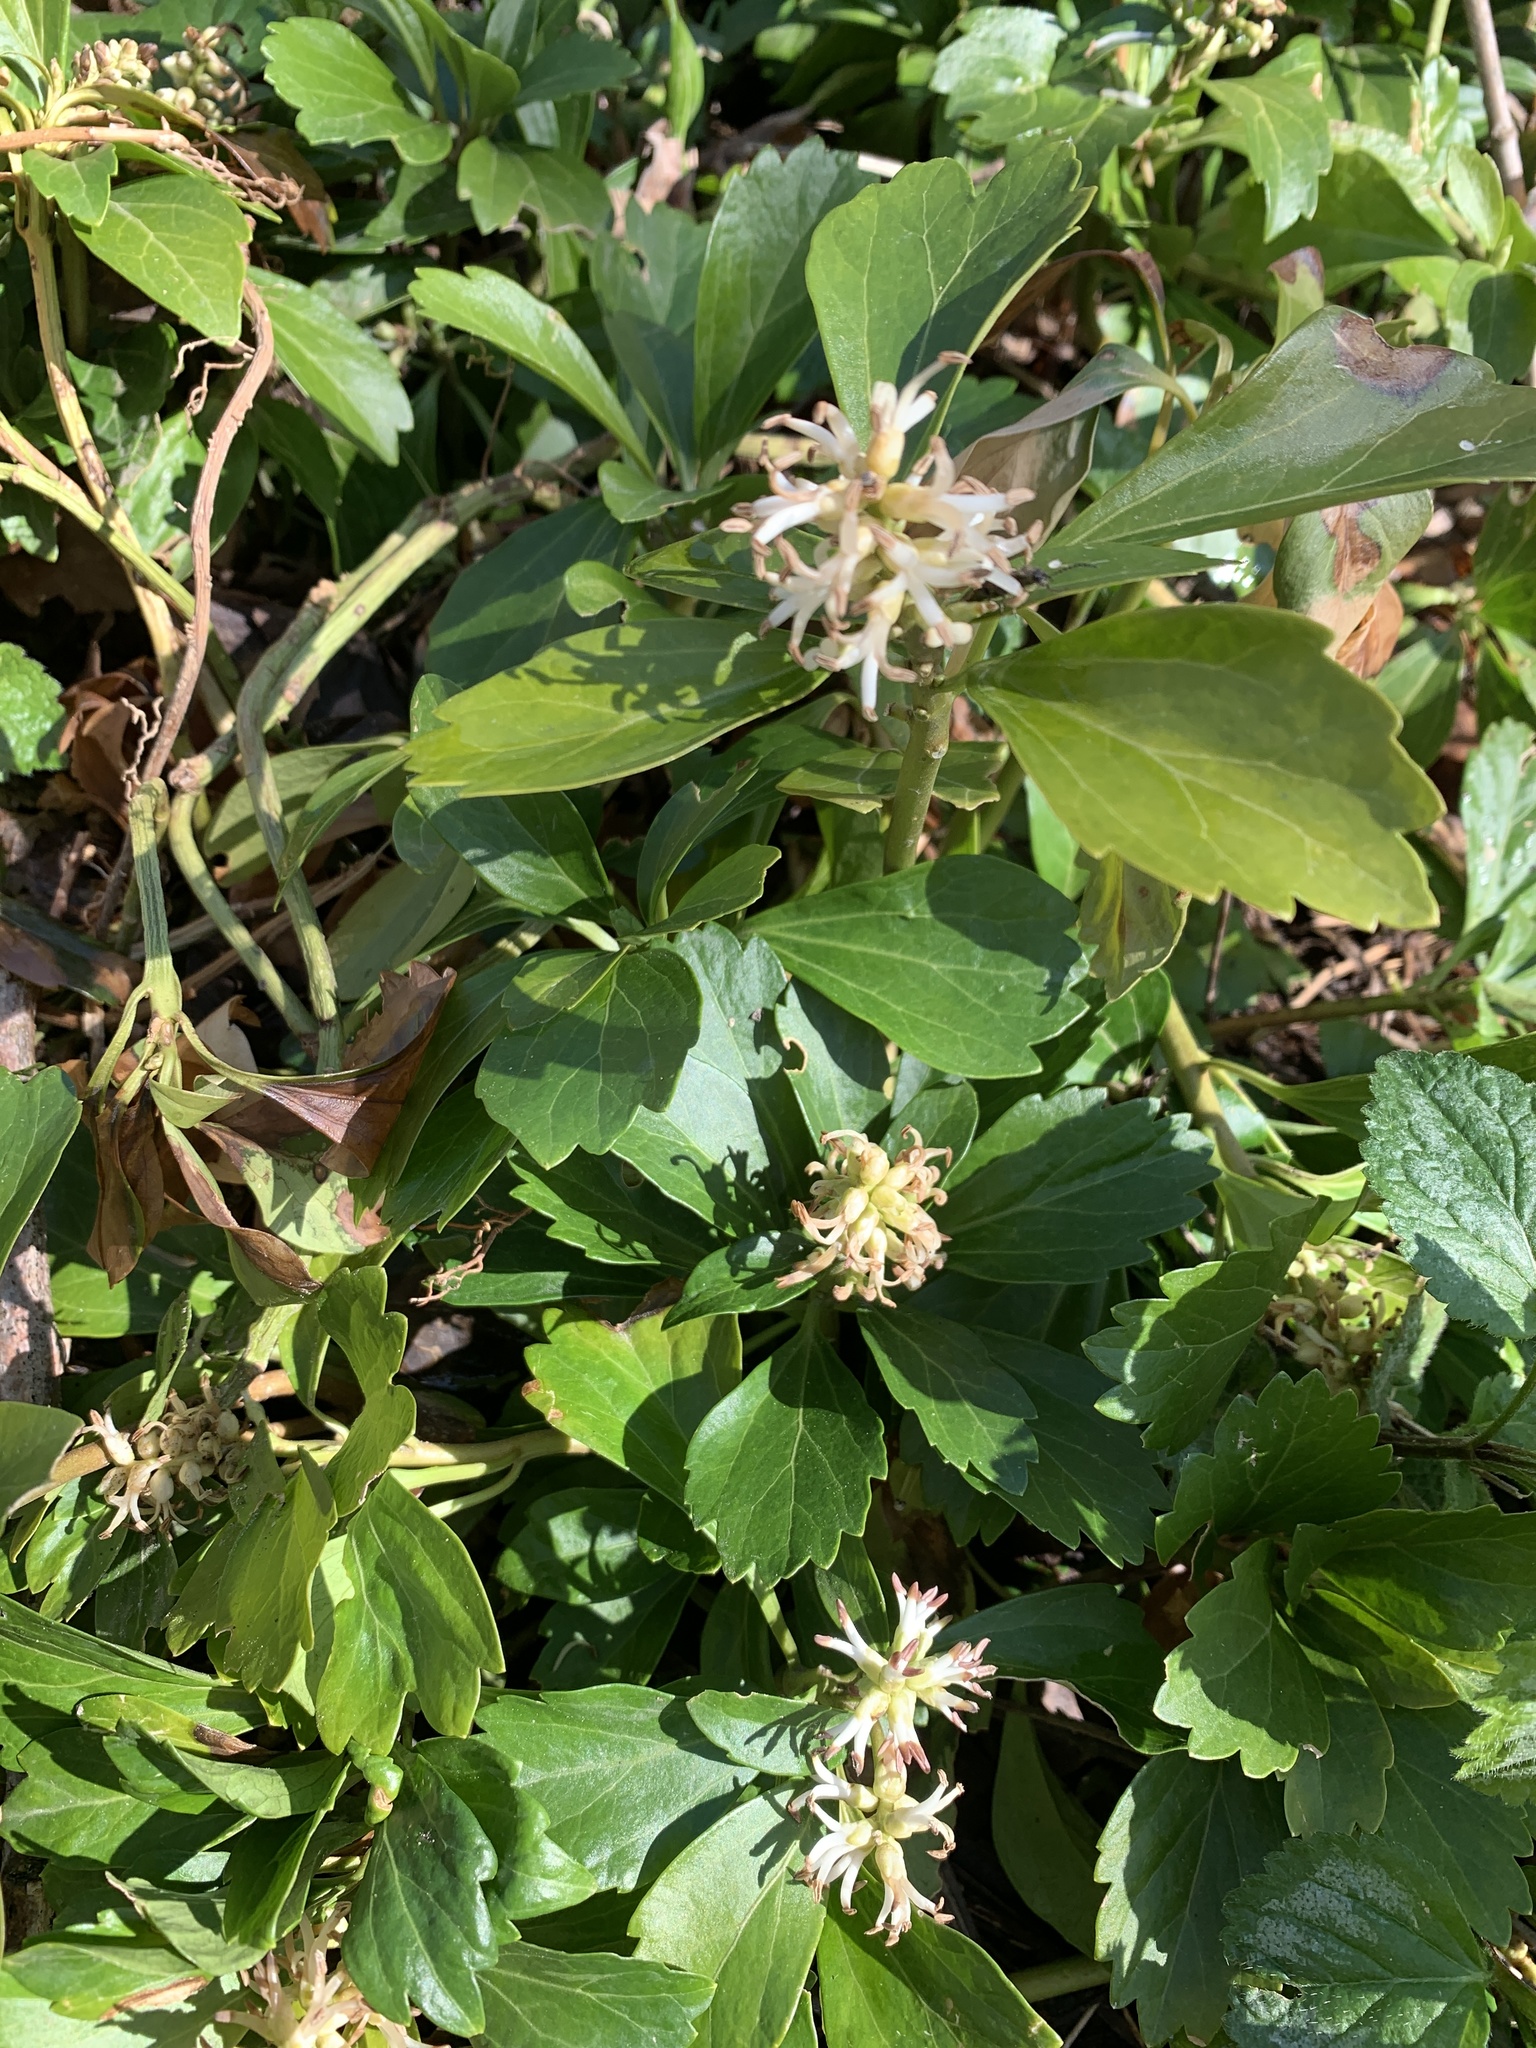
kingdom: Plantae
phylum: Tracheophyta
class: Magnoliopsida
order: Buxales
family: Buxaceae
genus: Pachysandra
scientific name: Pachysandra terminalis
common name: Japanese pachysandra
